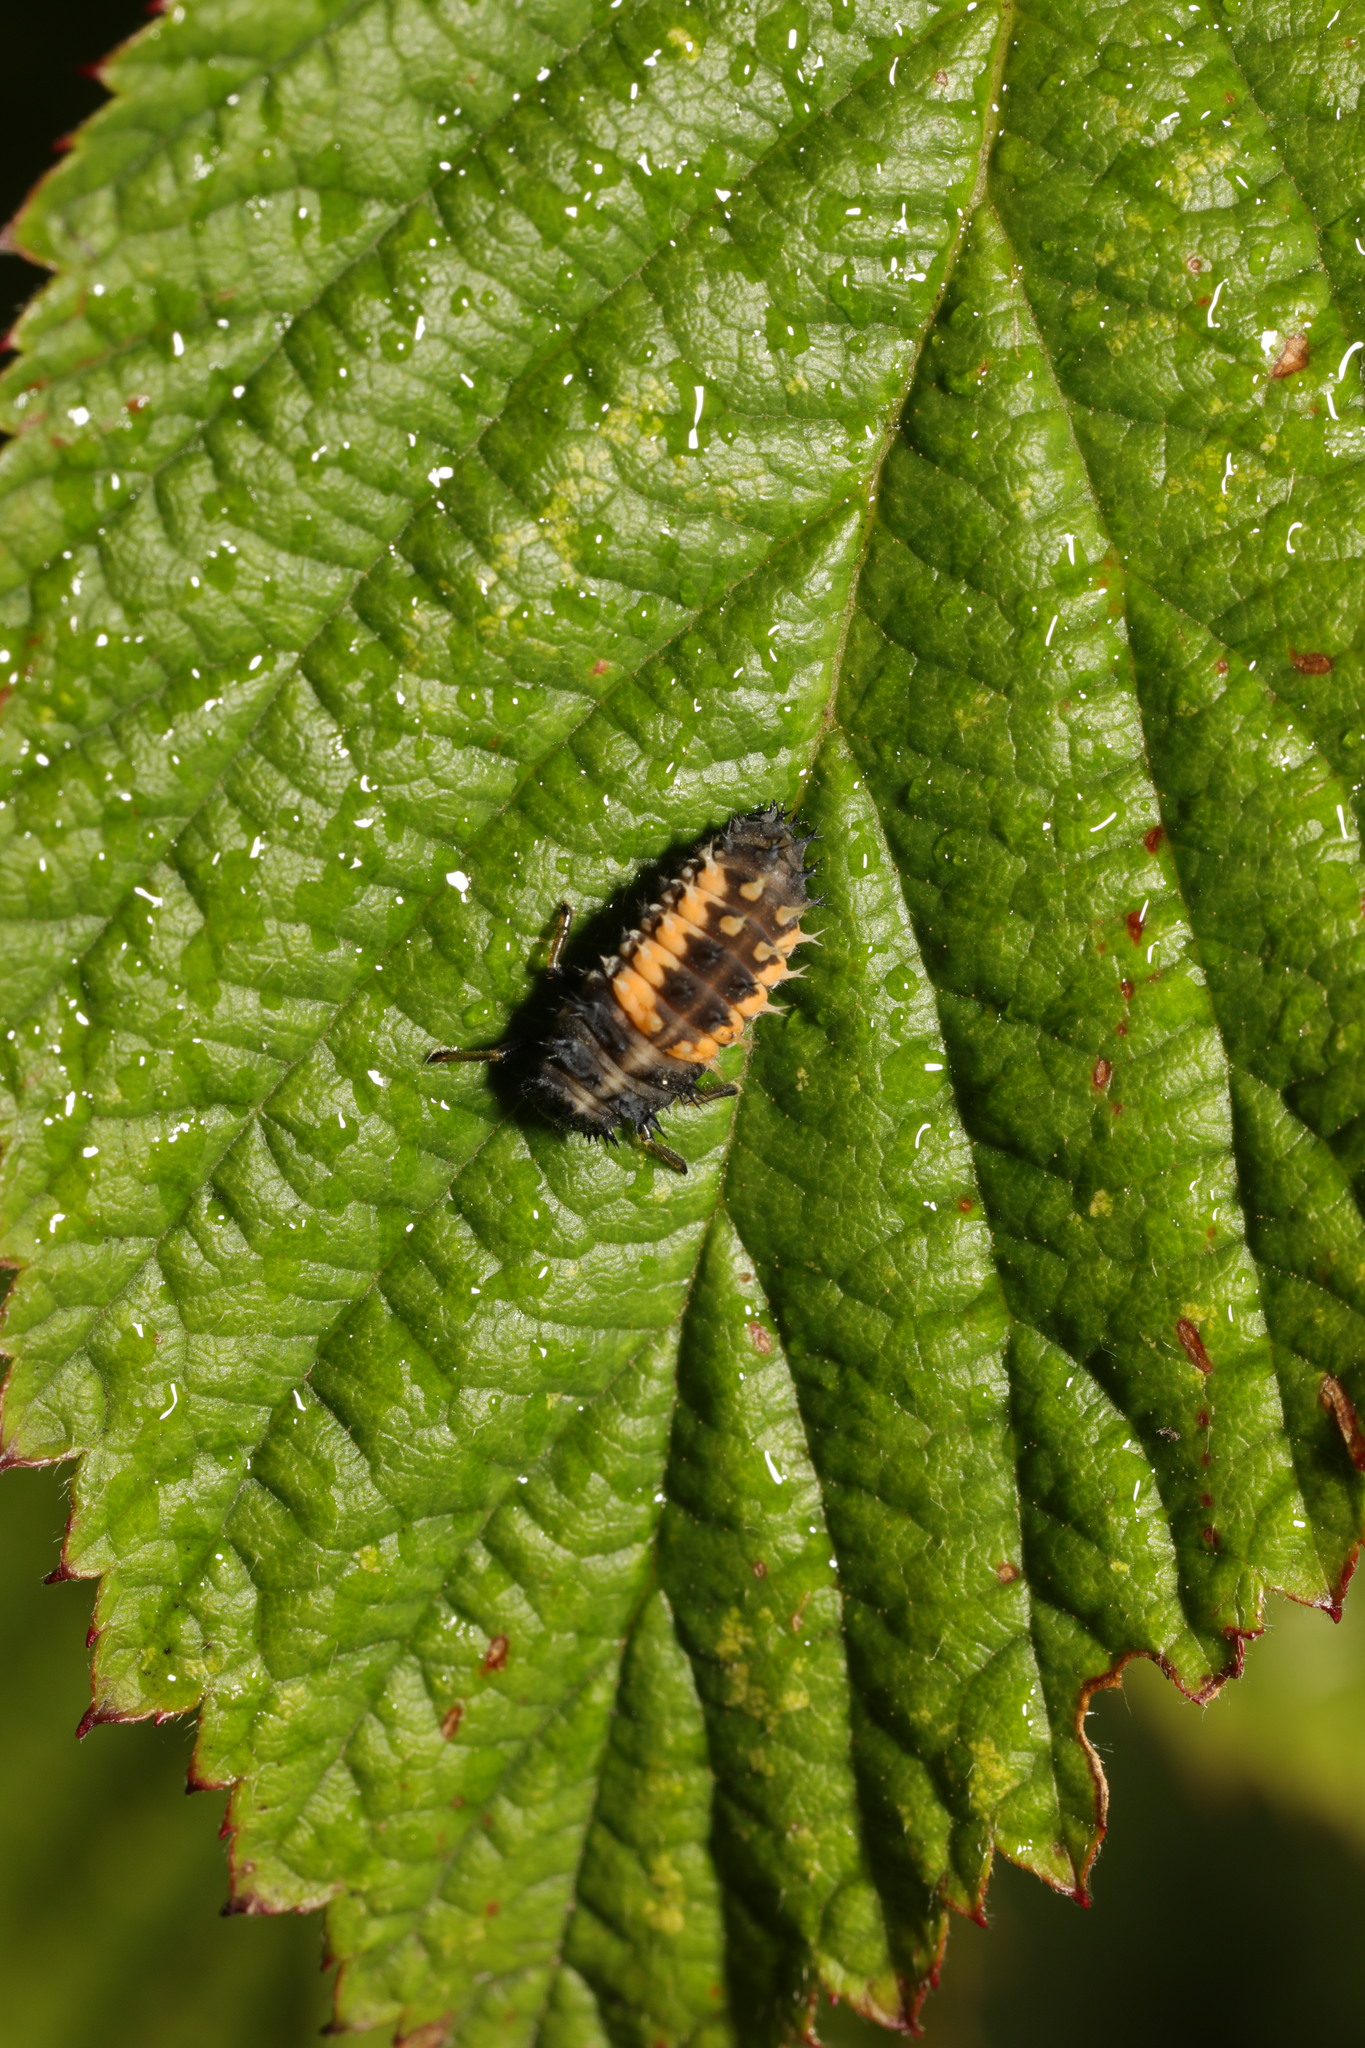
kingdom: Animalia
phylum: Arthropoda
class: Insecta
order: Coleoptera
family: Coccinellidae
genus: Harmonia
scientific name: Harmonia axyridis
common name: Harlequin ladybird
